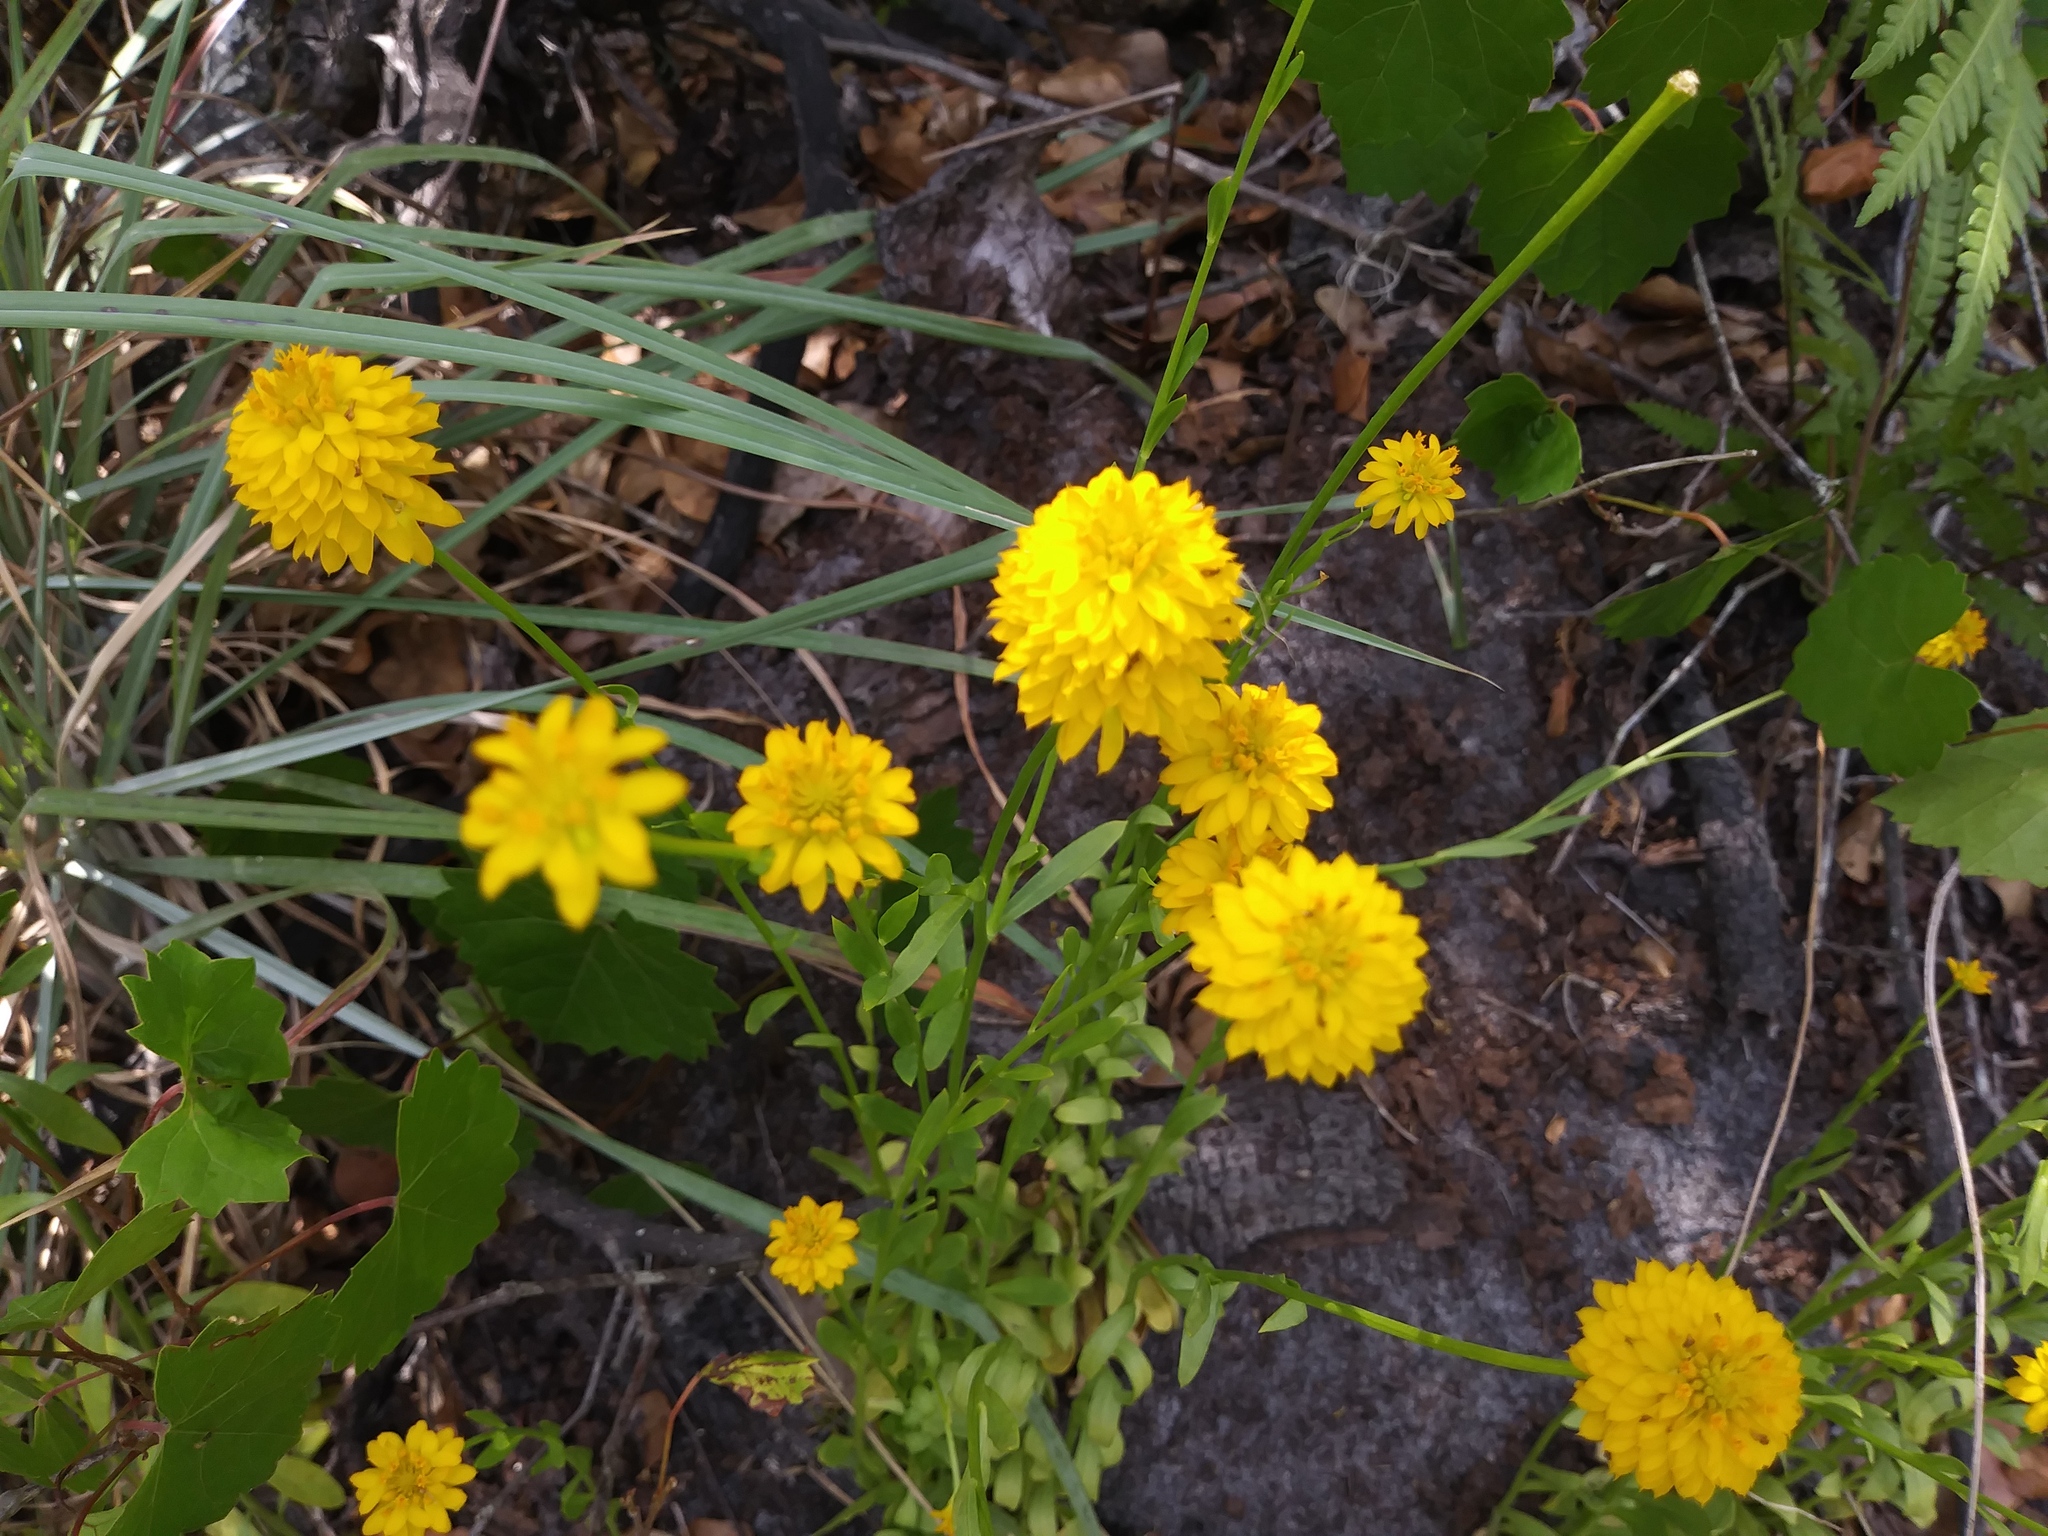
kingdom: Plantae
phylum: Tracheophyta
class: Magnoliopsida
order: Fabales
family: Polygalaceae
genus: Polygala
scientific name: Polygala rugelii
